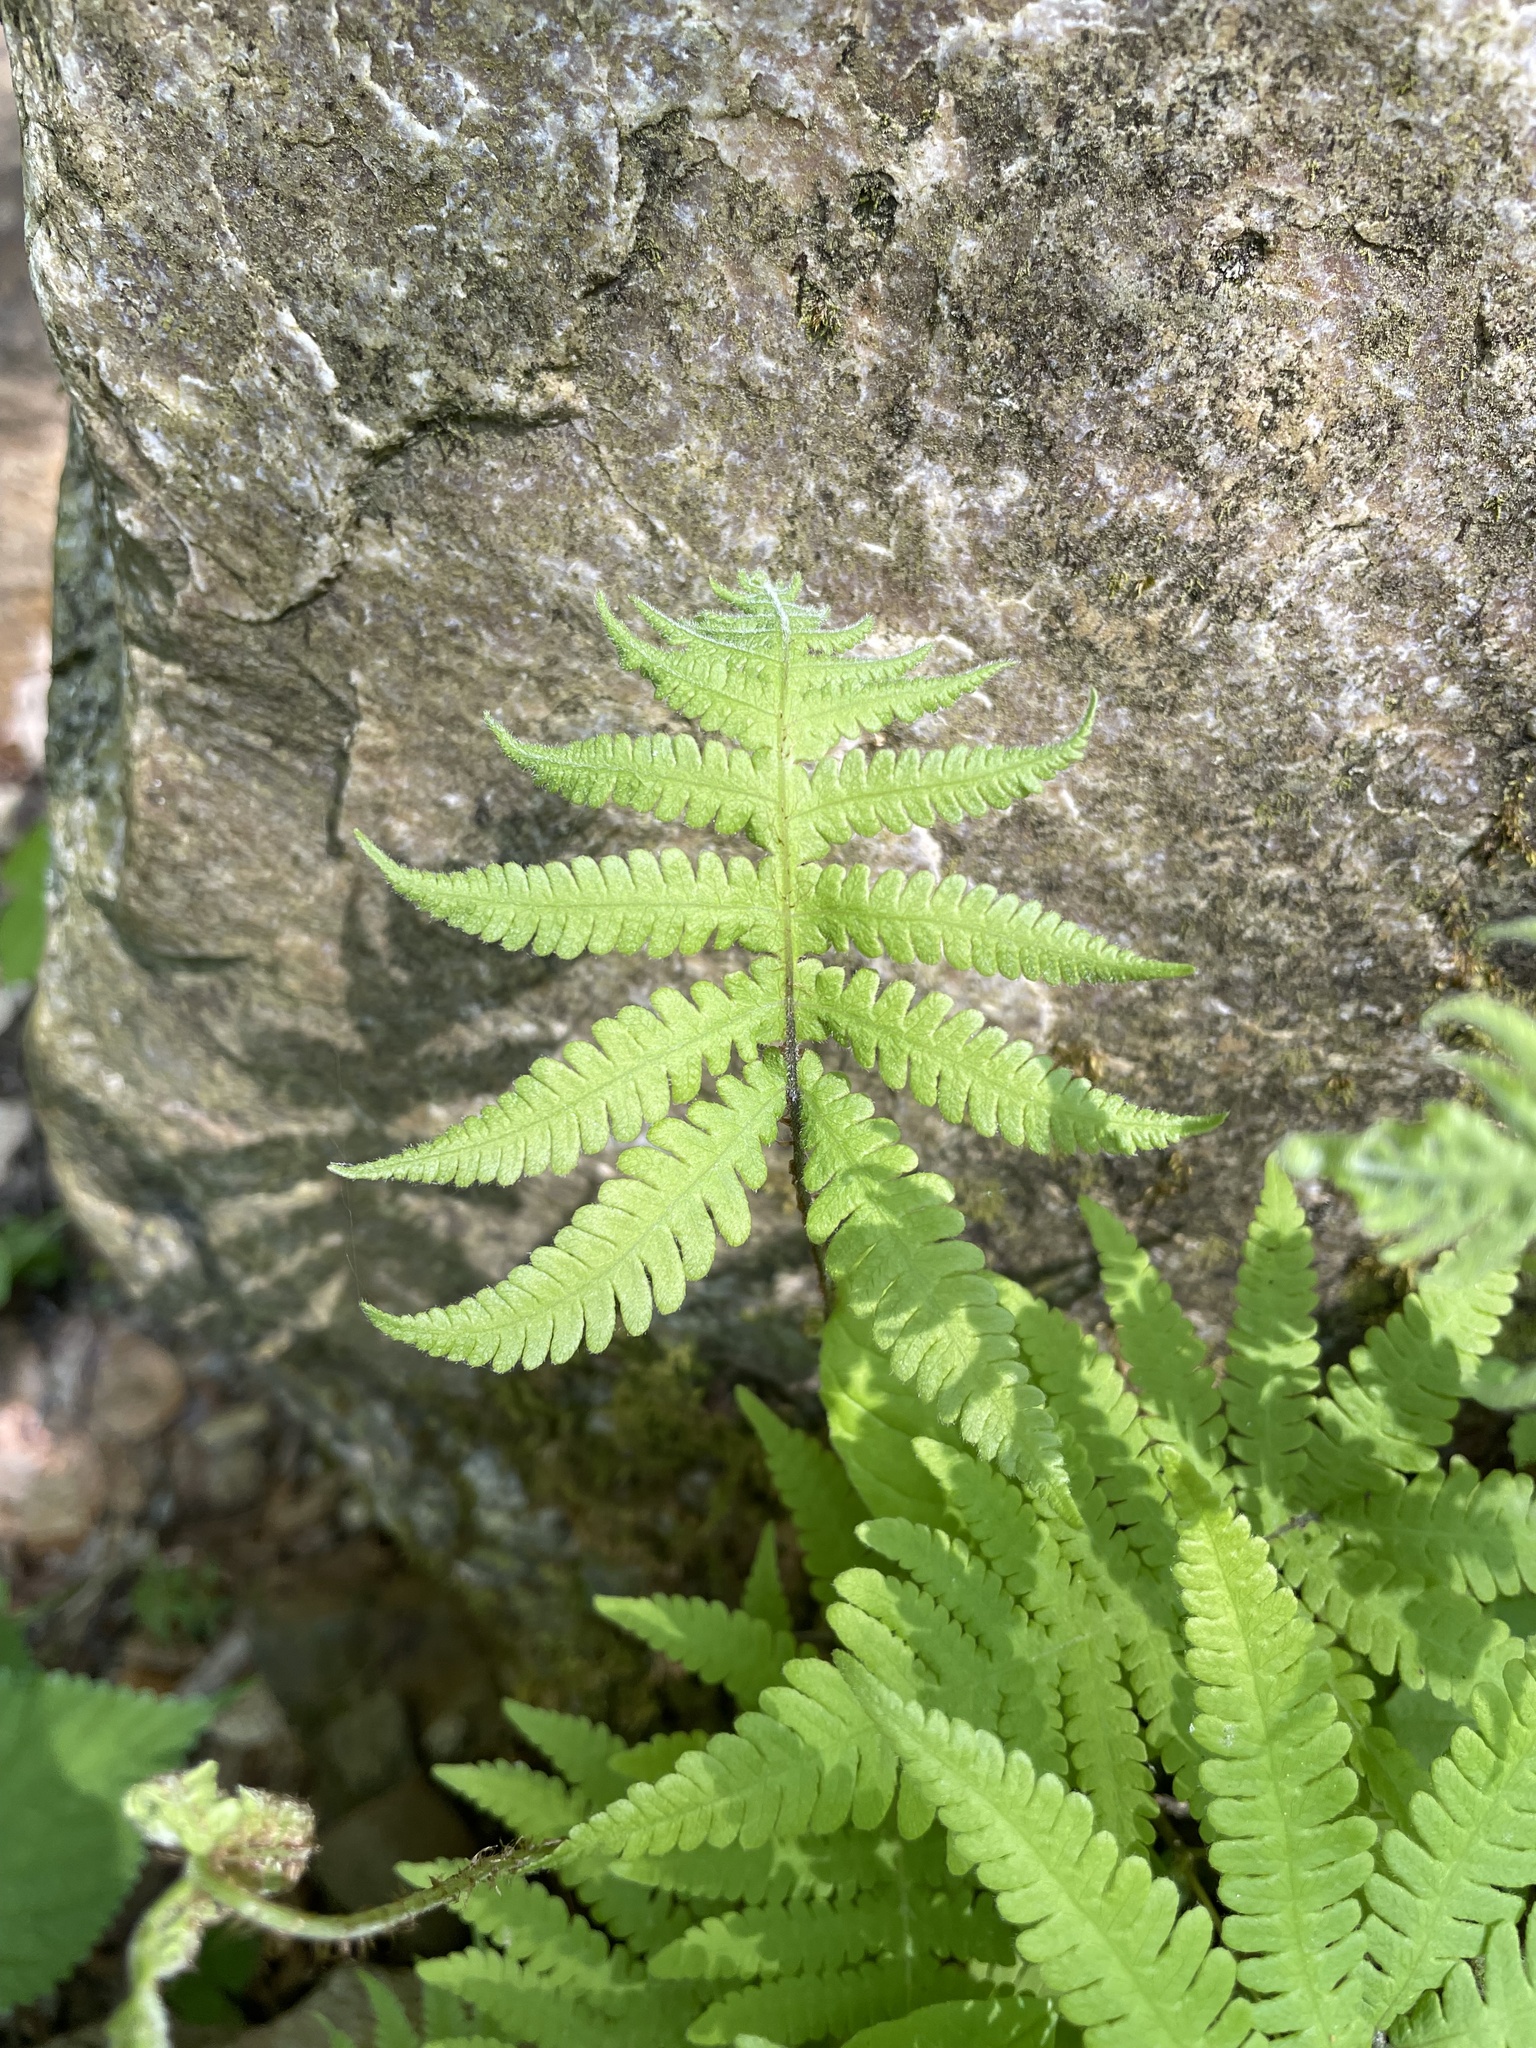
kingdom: Plantae
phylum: Tracheophyta
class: Polypodiopsida
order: Polypodiales
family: Thelypteridaceae
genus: Phegopteris
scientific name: Phegopteris connectilis
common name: Beech fern
